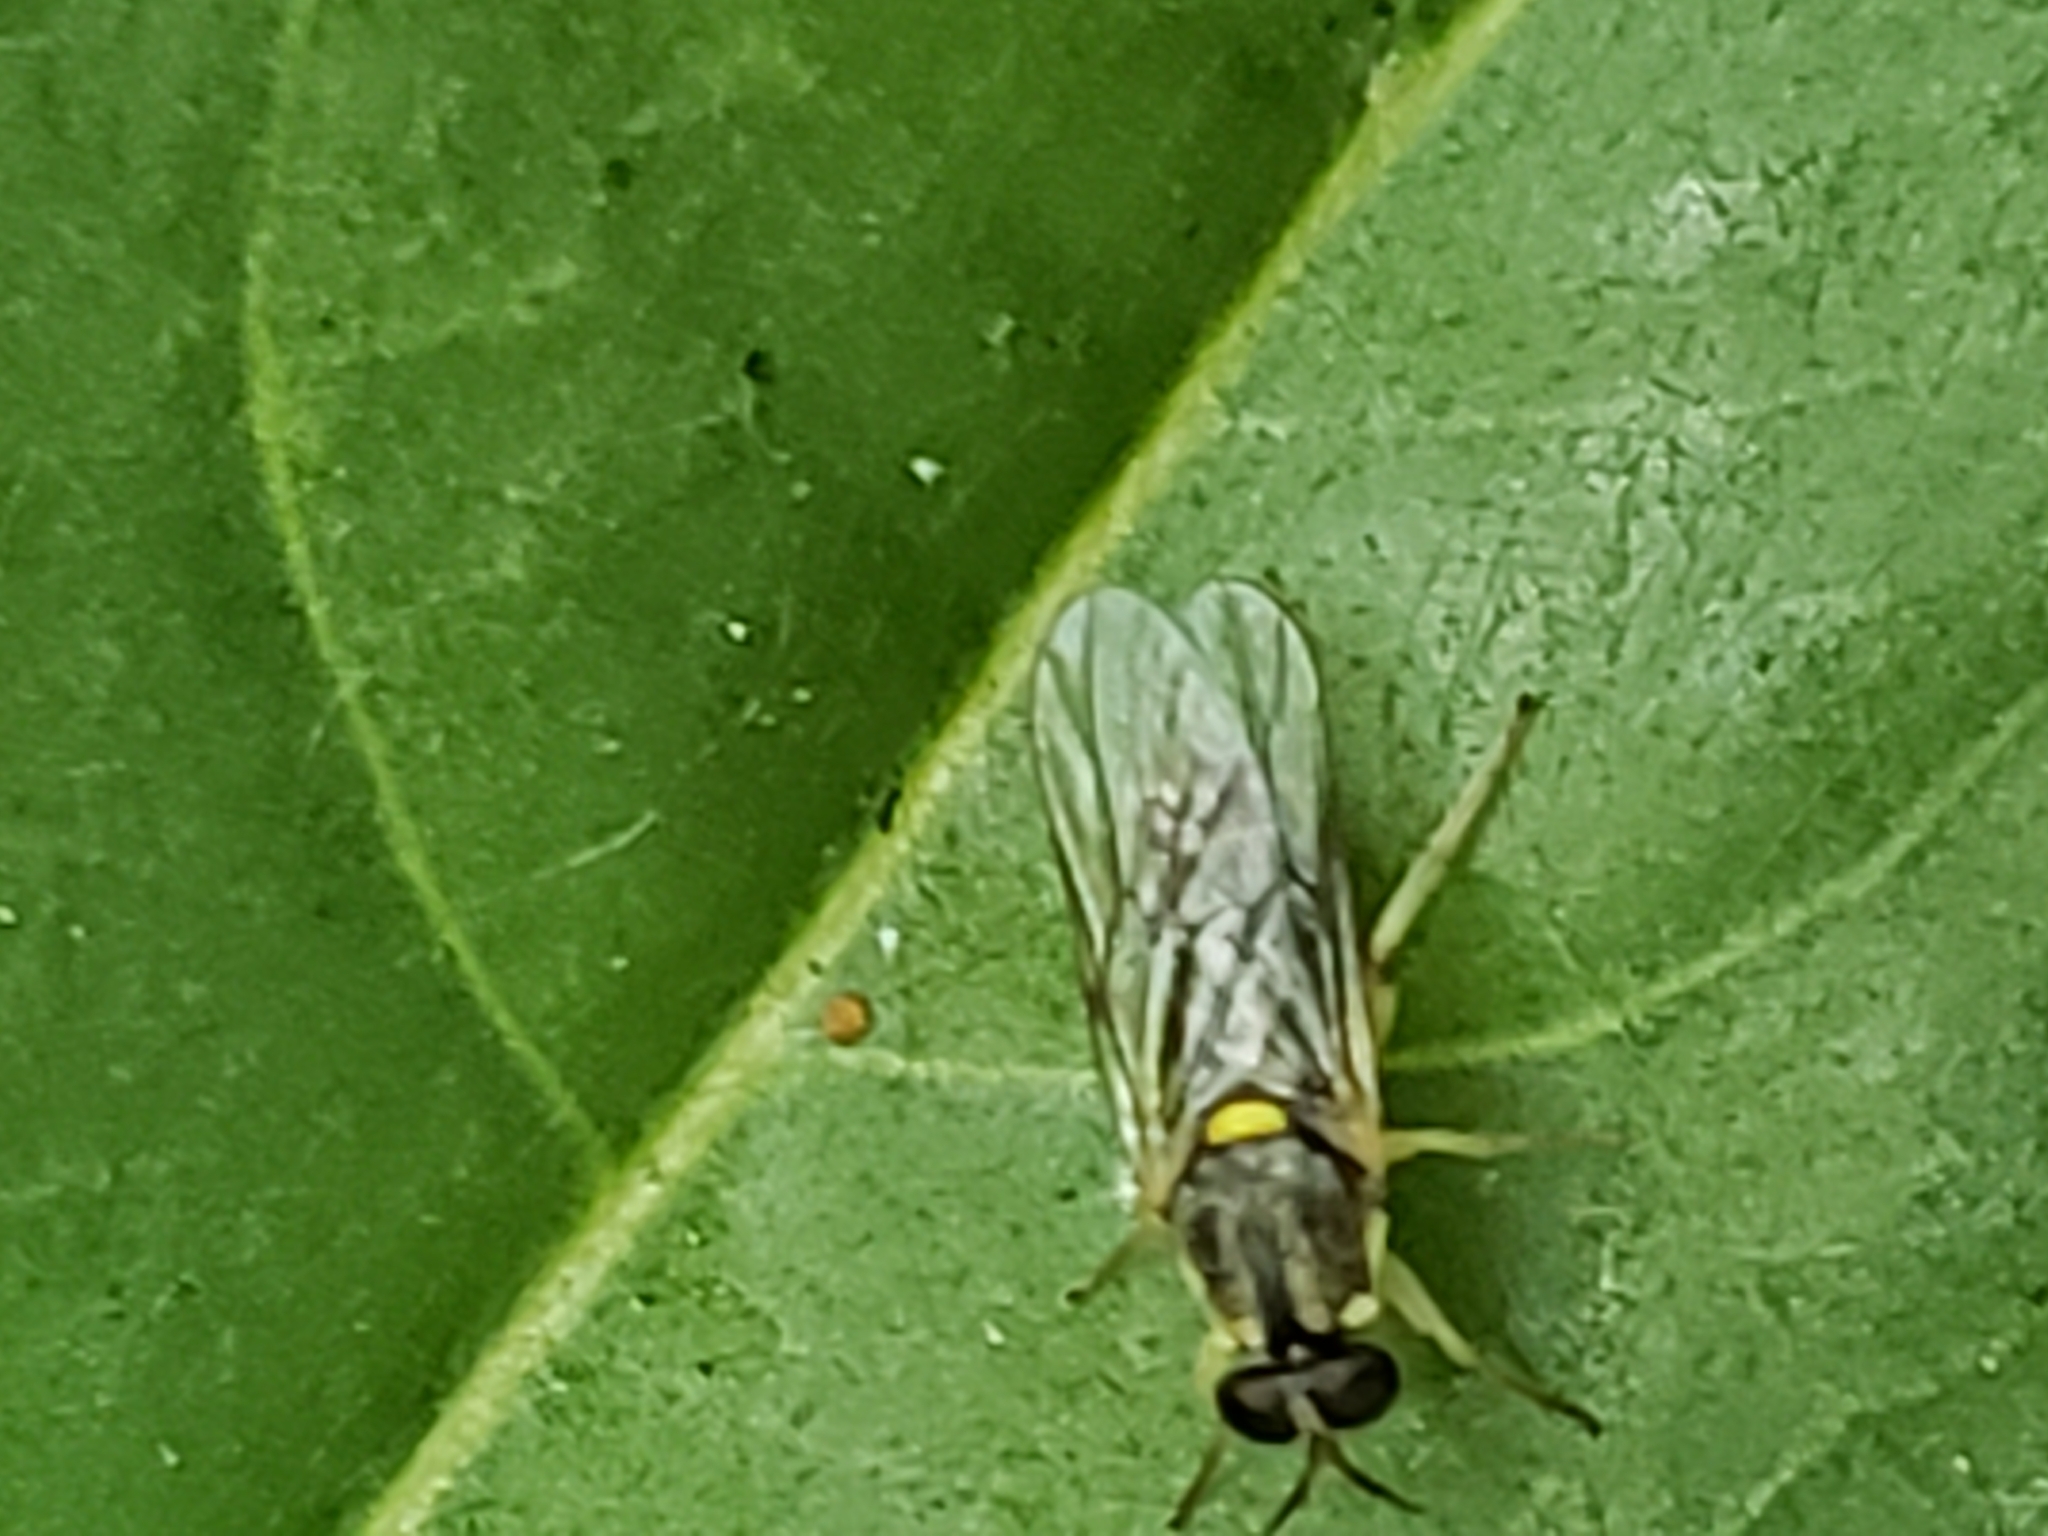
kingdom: Animalia
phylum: Arthropoda
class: Insecta
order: Diptera
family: Xylomyidae
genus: Solva
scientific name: Solva pallipes
